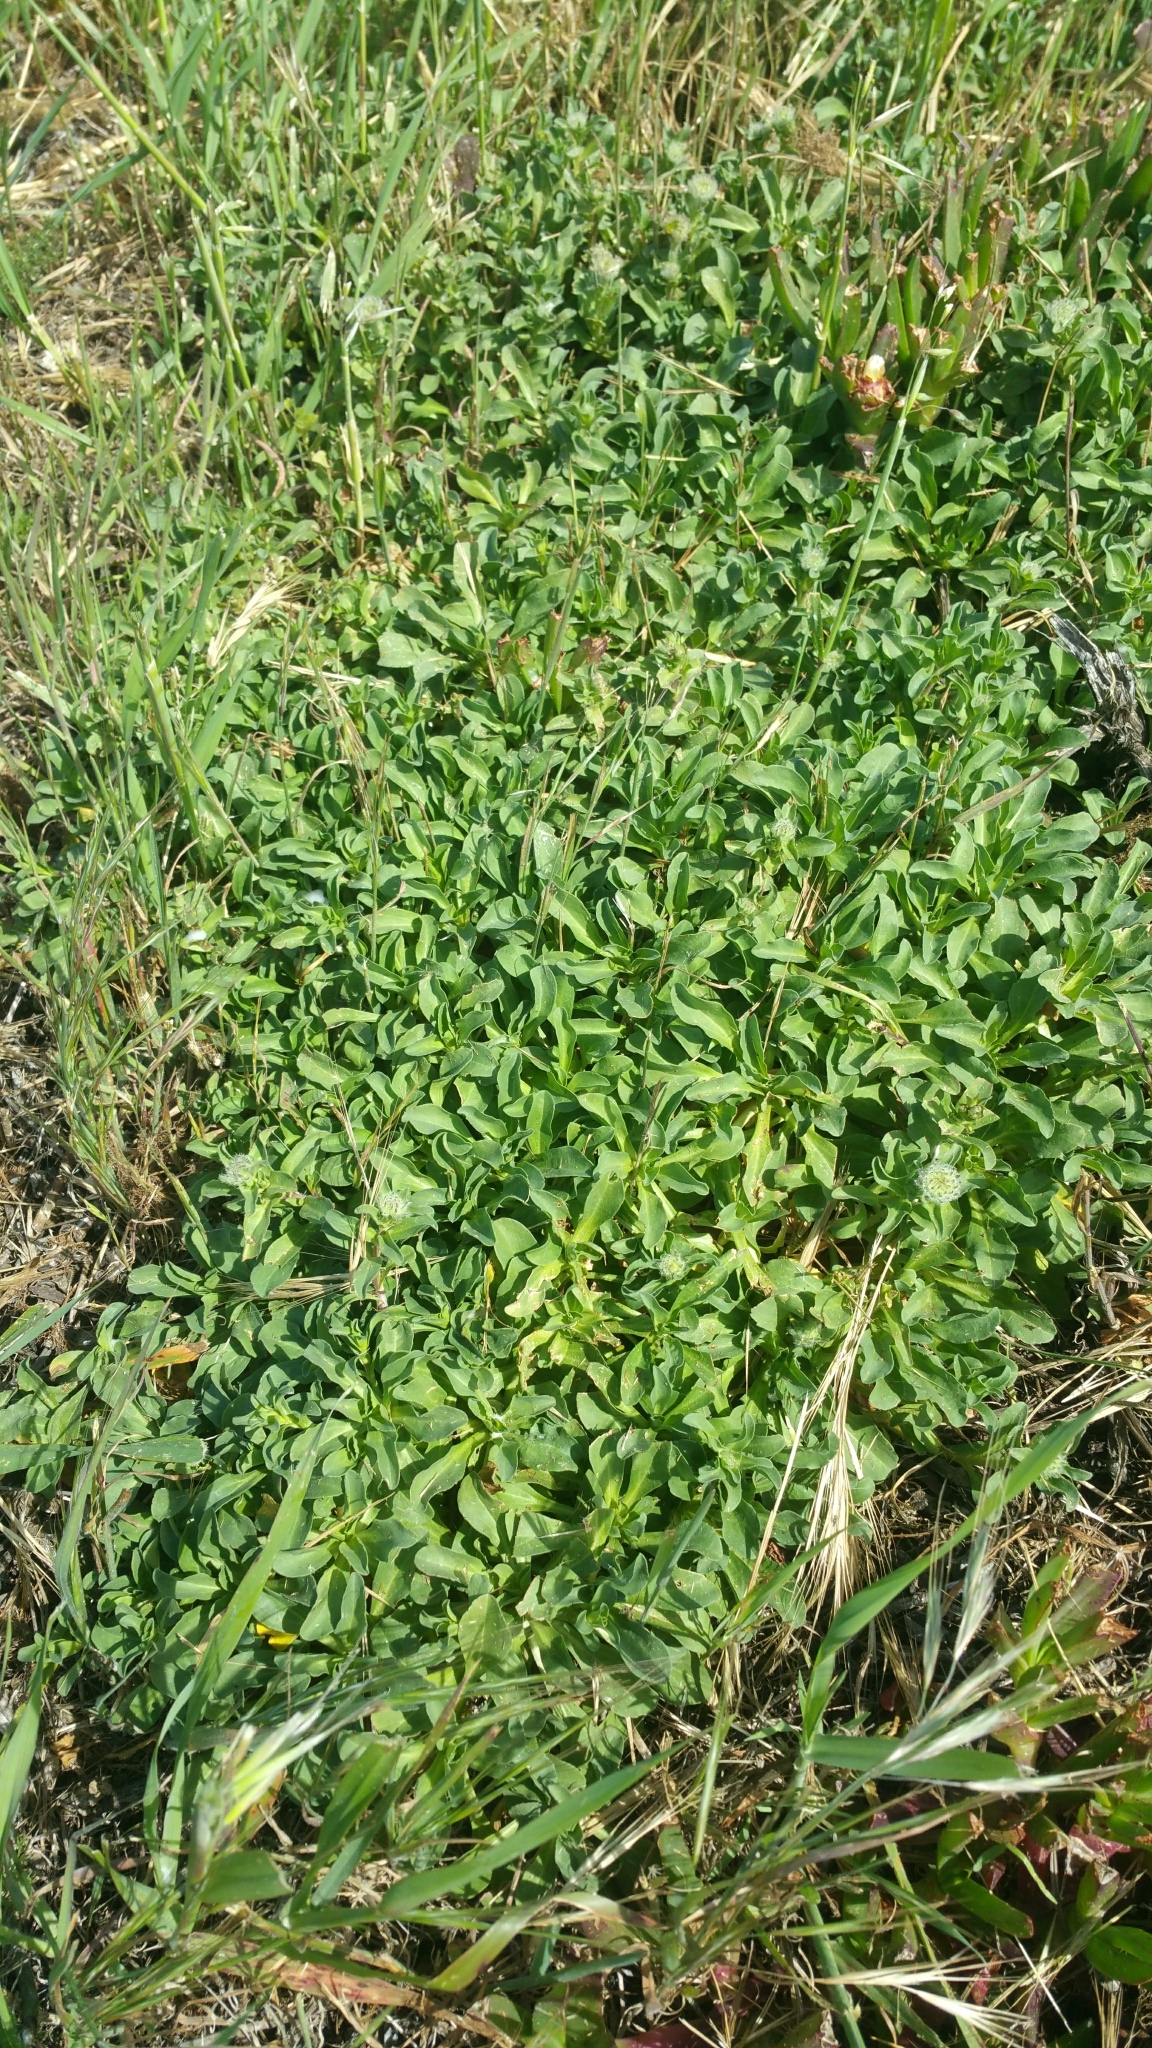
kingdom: Plantae
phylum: Tracheophyta
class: Magnoliopsida
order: Asterales
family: Asteraceae
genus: Erigeron
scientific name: Erigeron glaucus
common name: Seaside daisy
